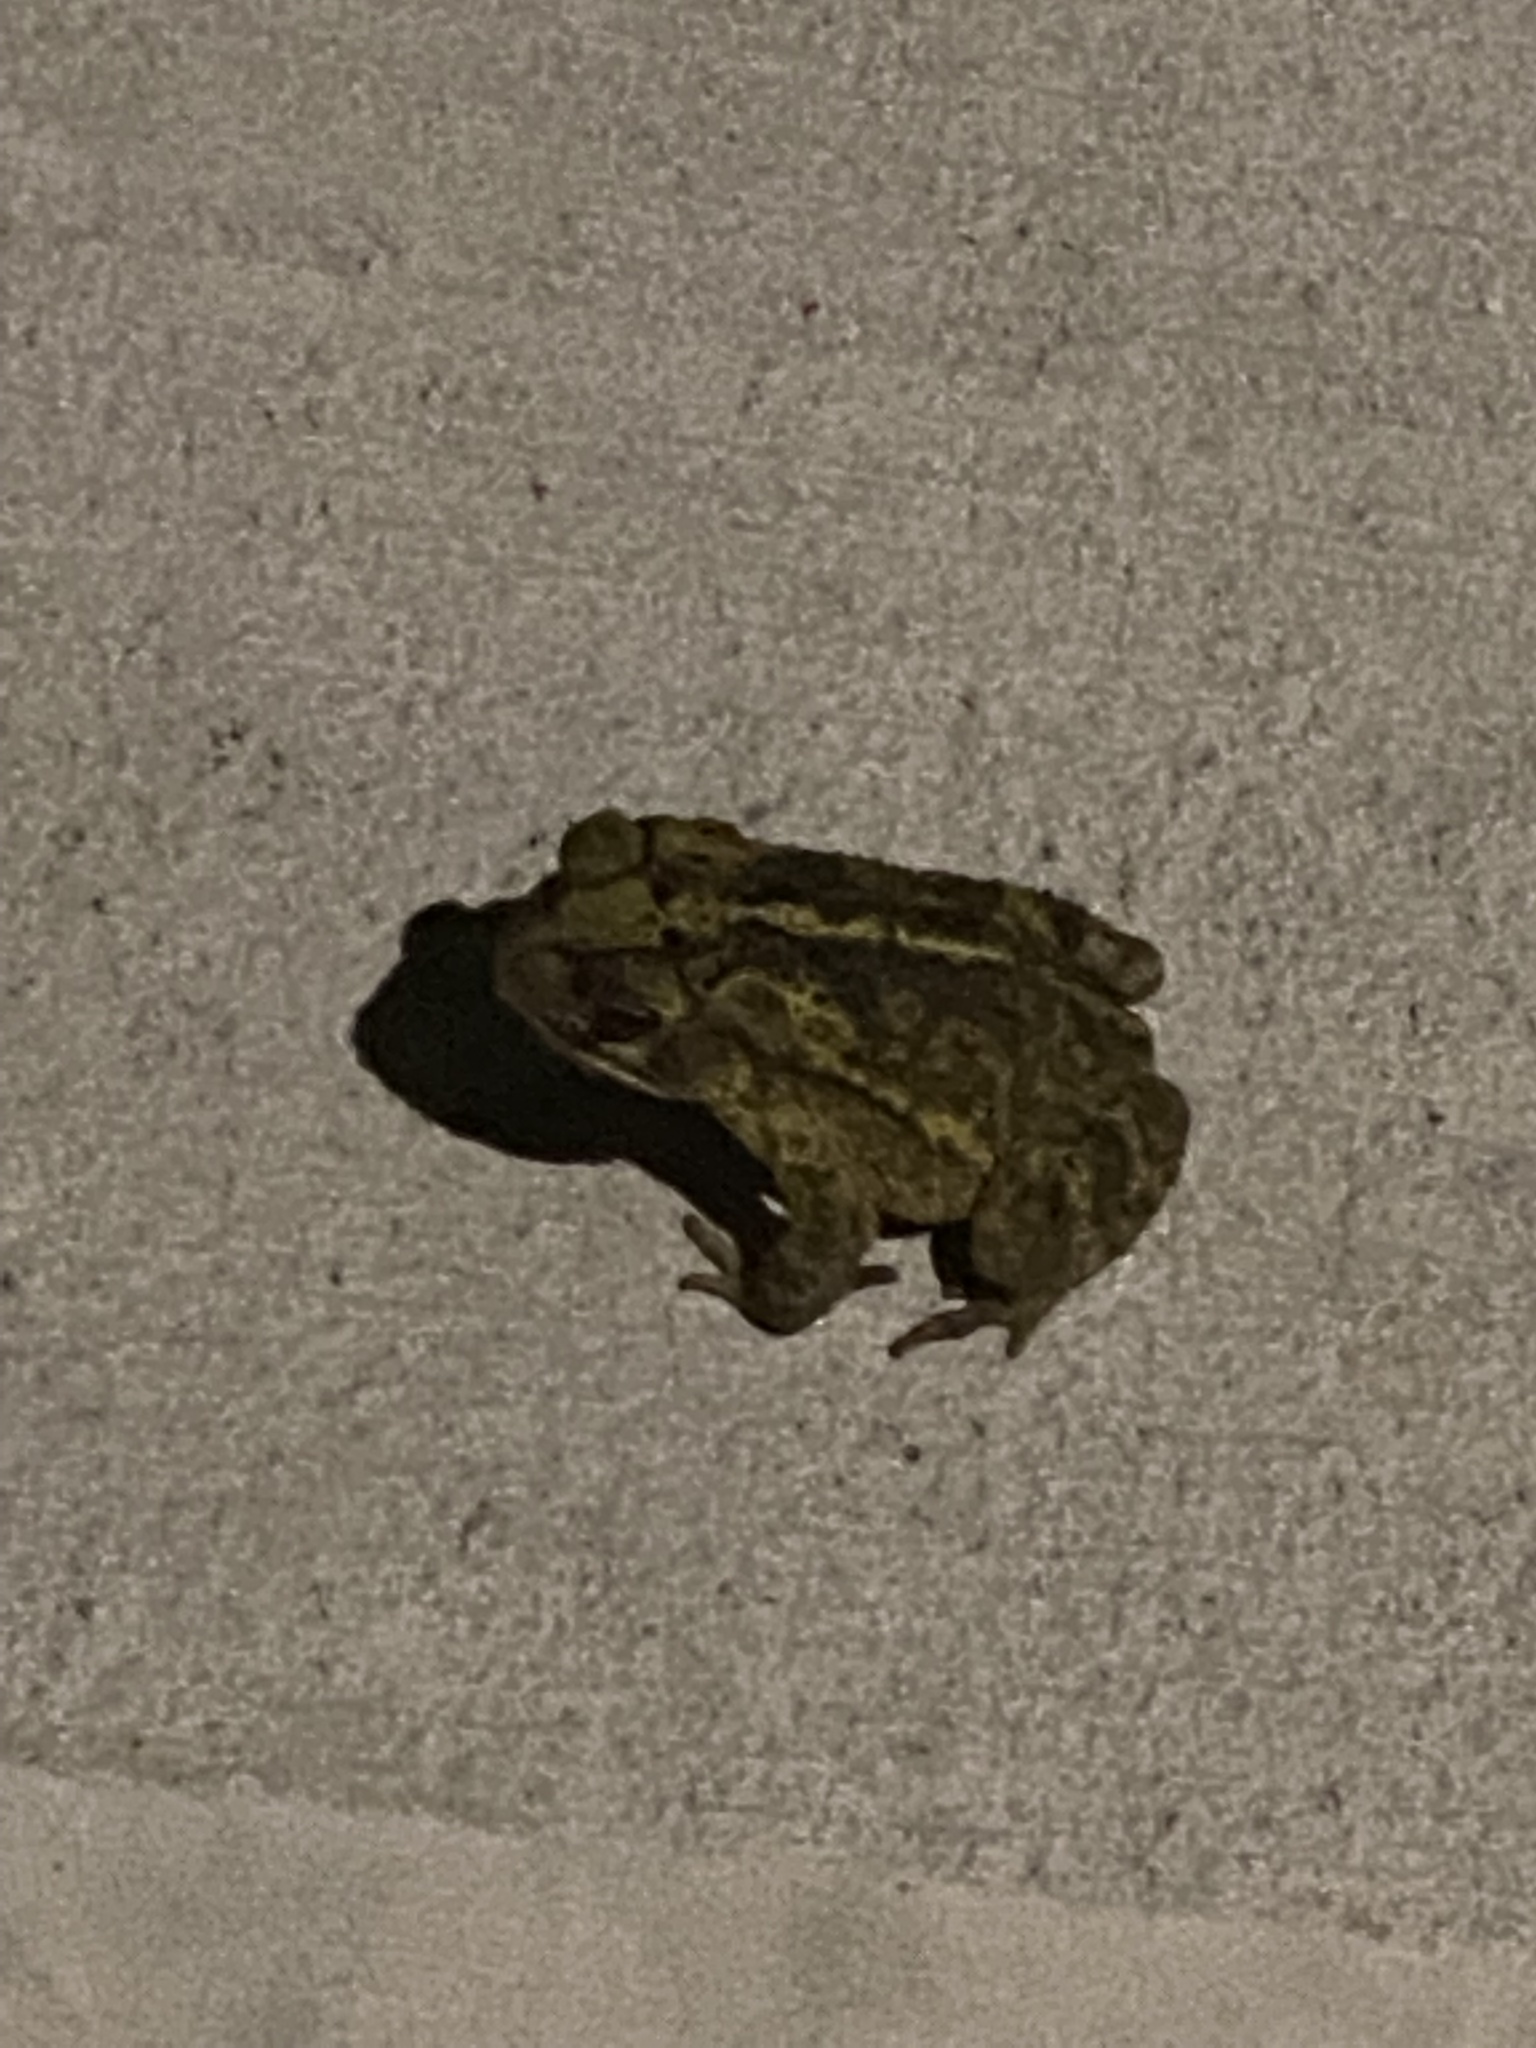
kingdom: Animalia
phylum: Chordata
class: Amphibia
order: Anura
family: Bufonidae
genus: Incilius
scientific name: Incilius nebulifer
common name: Gulf coast toad
